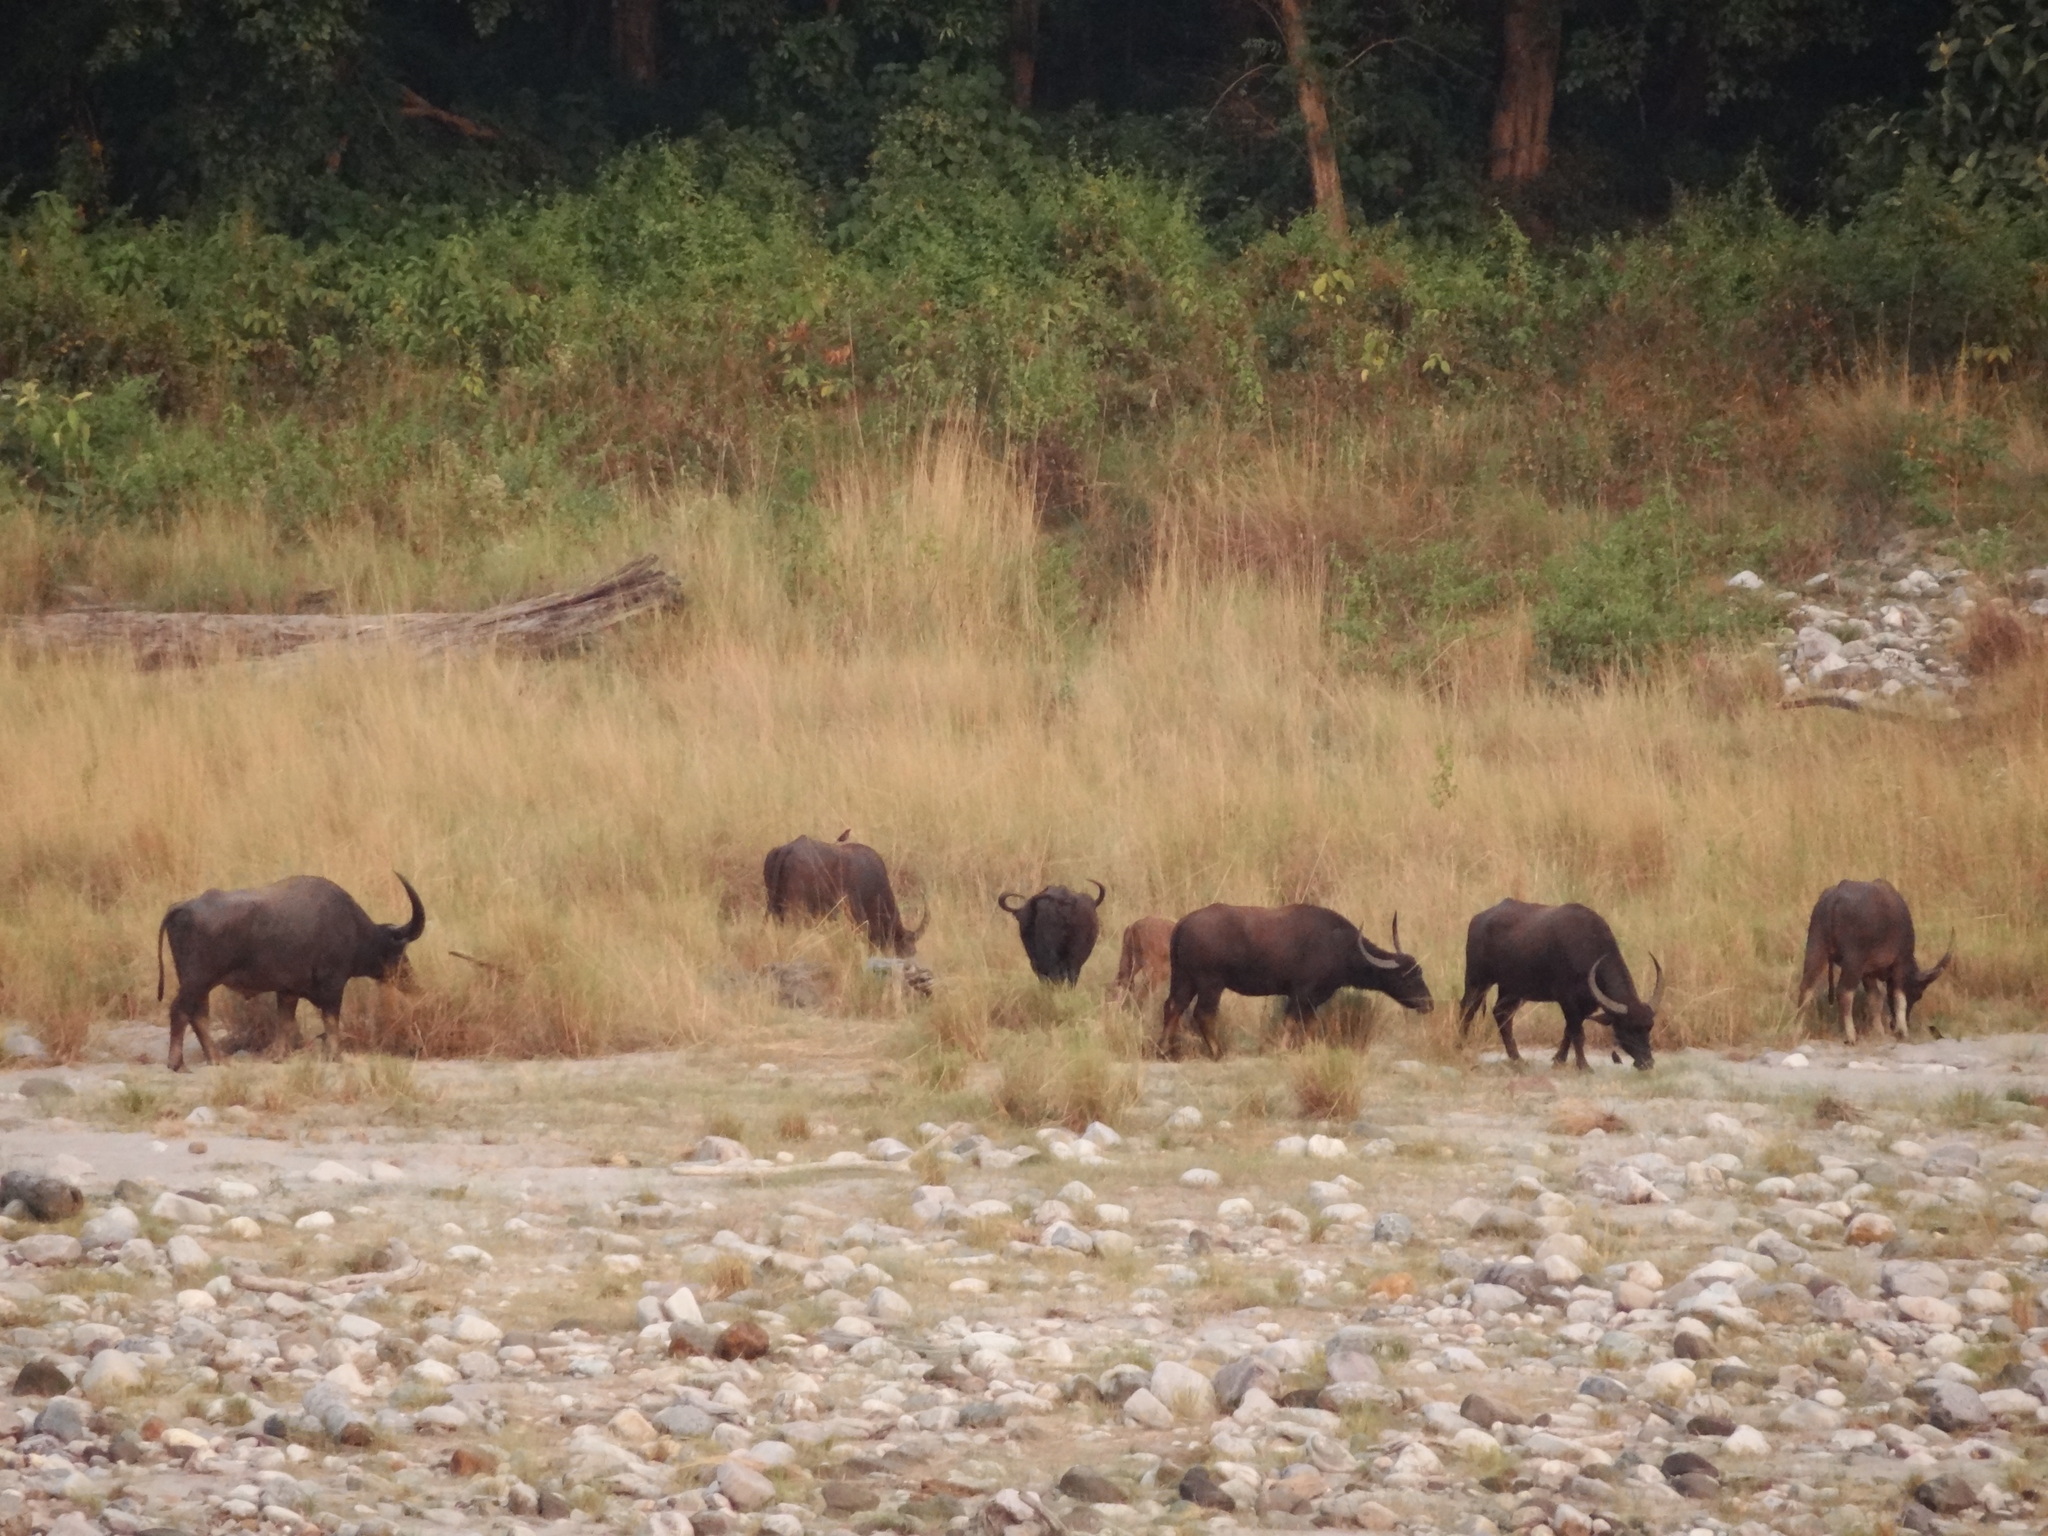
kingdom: Animalia
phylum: Chordata
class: Mammalia
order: Artiodactyla
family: Bovidae
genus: Bubalus
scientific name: Bubalus bubalis
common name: Water buffalo
